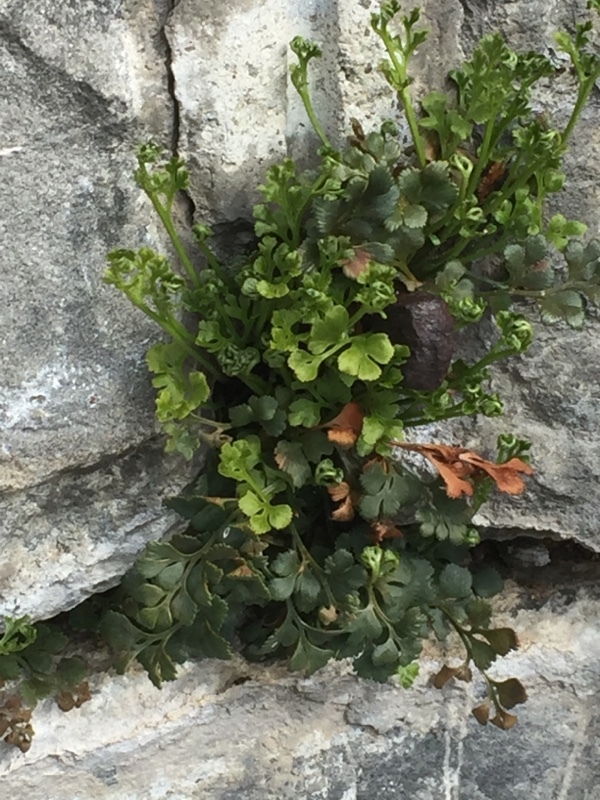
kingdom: Plantae
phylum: Tracheophyta
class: Polypodiopsida
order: Polypodiales
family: Aspleniaceae
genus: Asplenium
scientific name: Asplenium ruta-muraria
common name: Wall-rue
